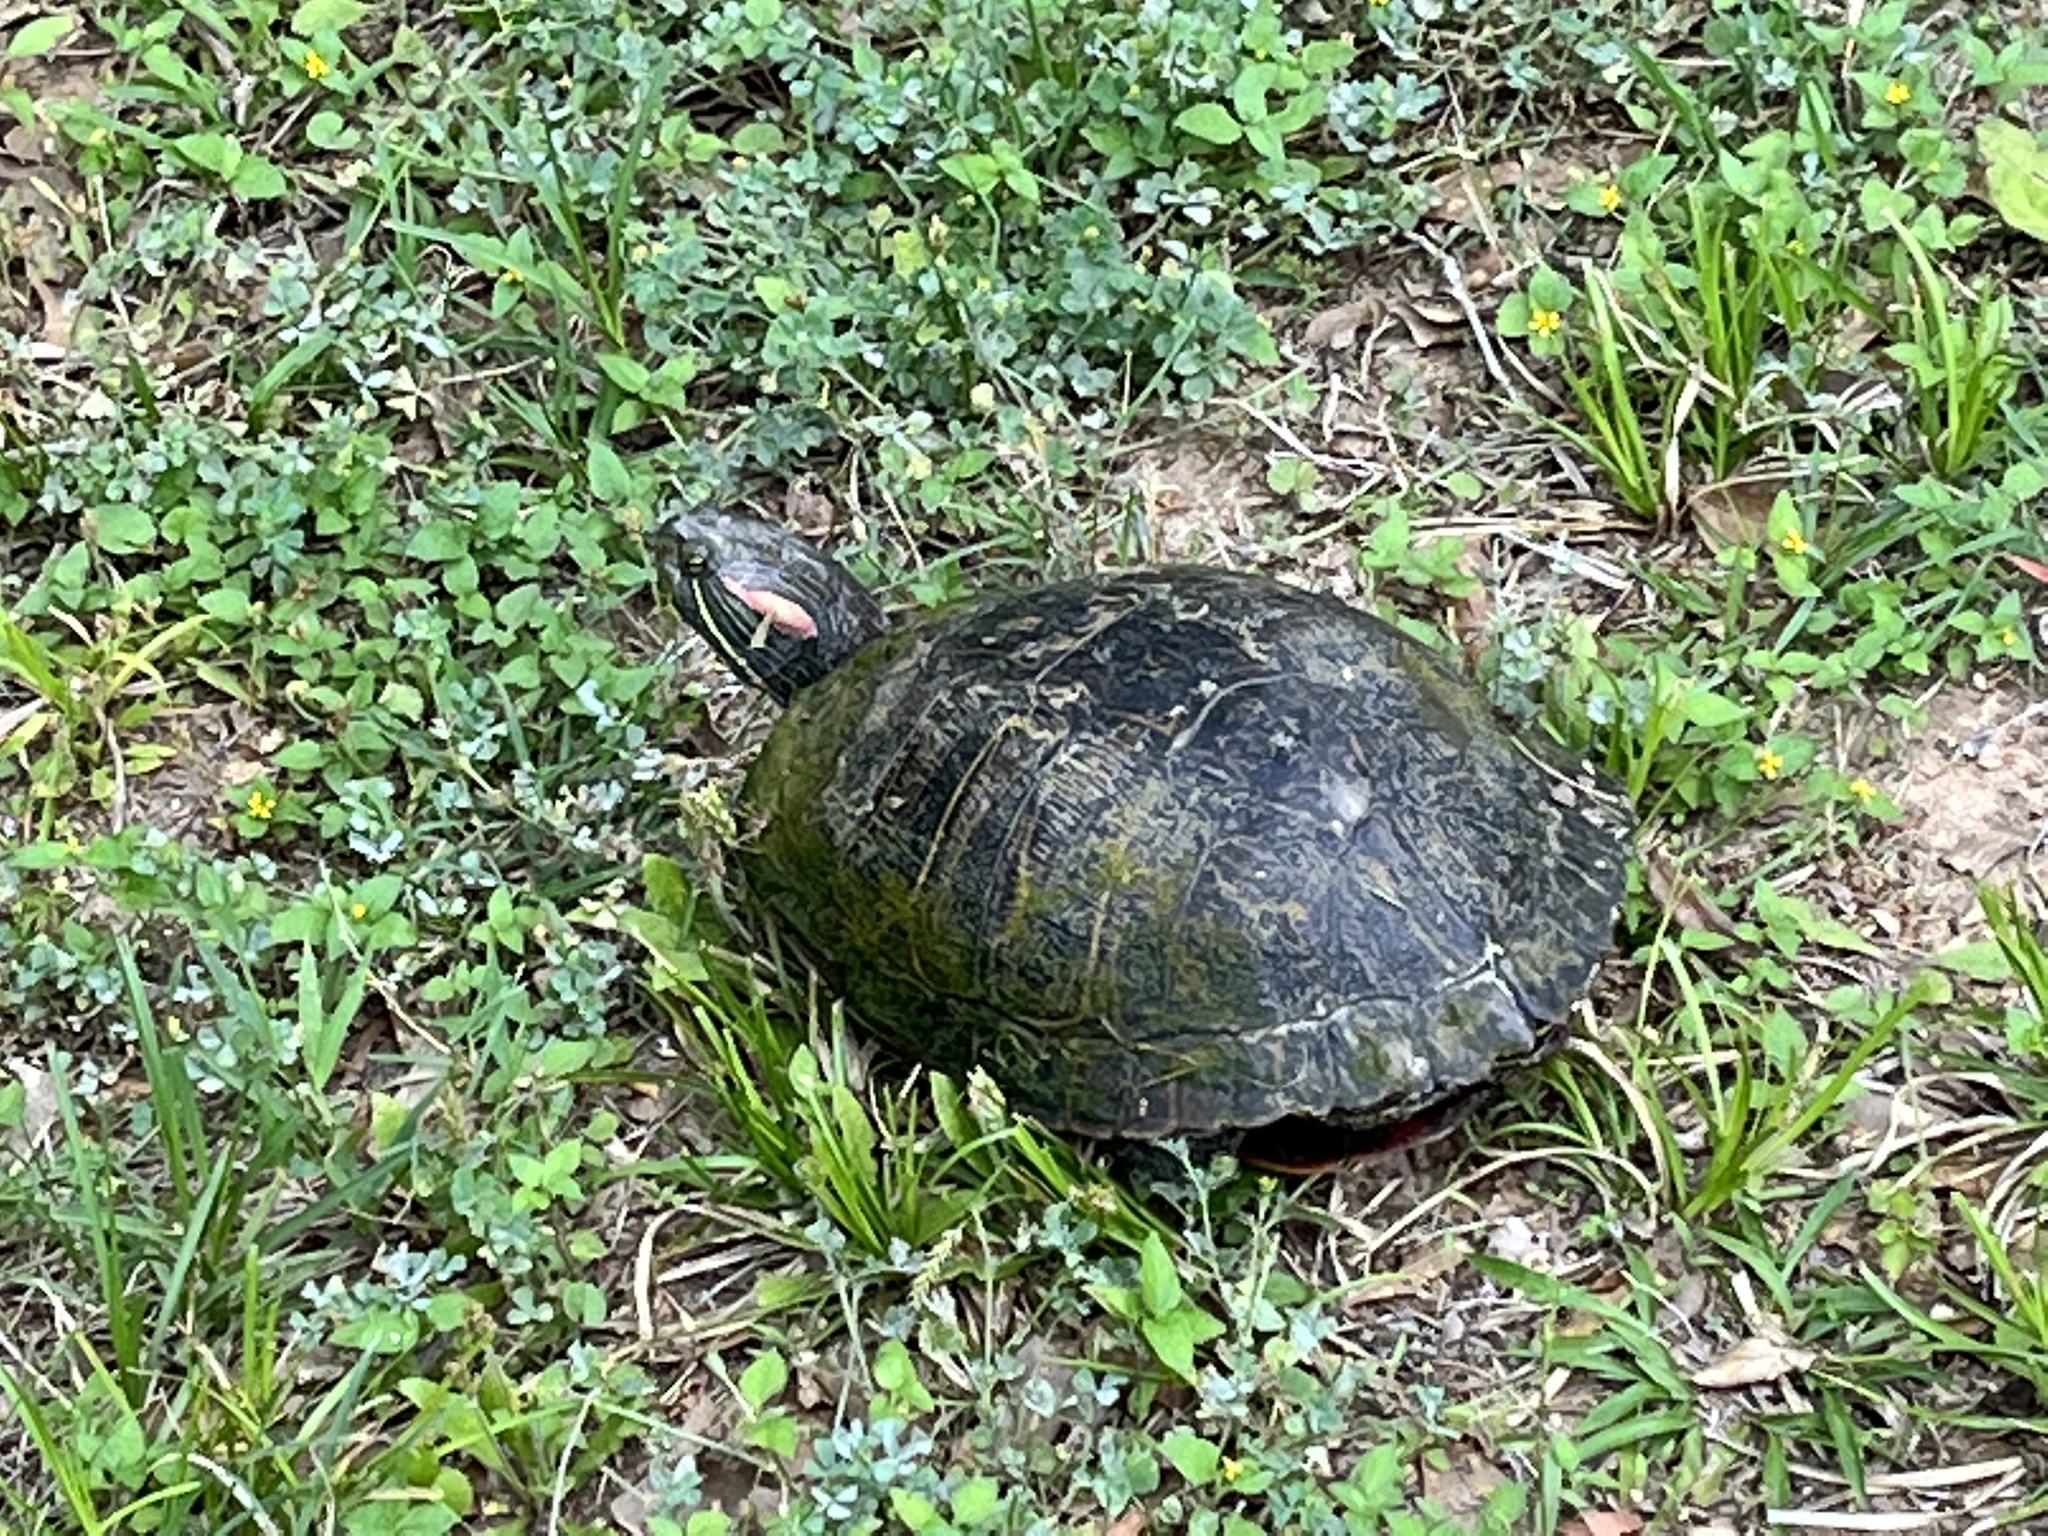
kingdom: Animalia
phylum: Chordata
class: Testudines
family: Emydidae
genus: Trachemys
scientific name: Trachemys scripta
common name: Slider
